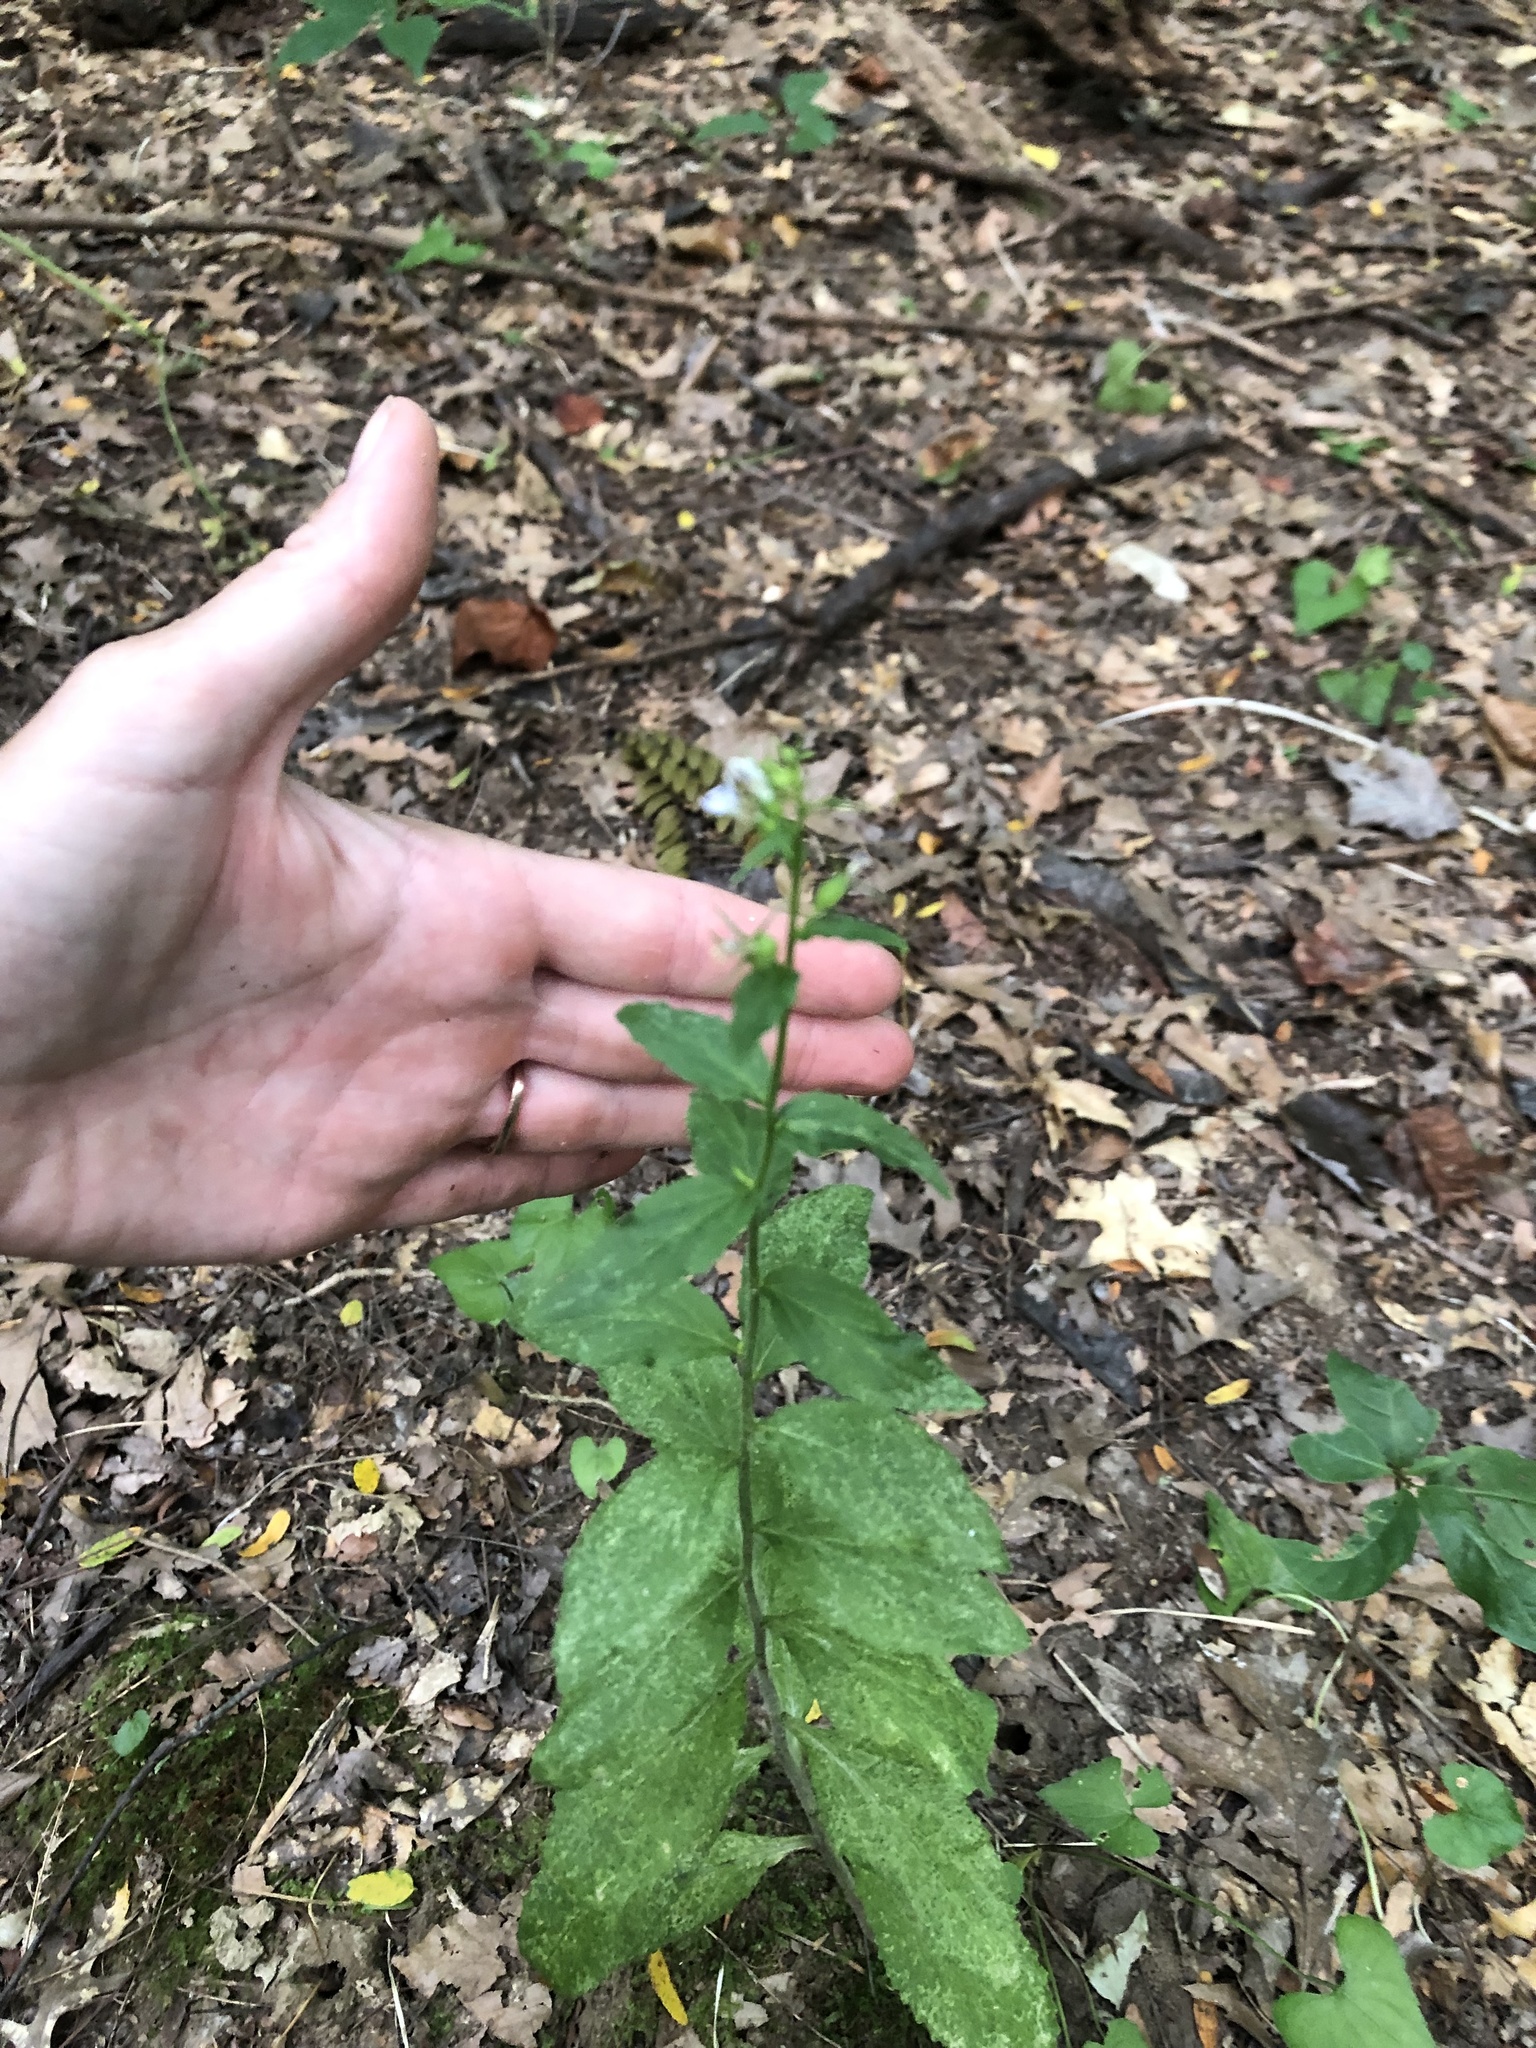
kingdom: Plantae
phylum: Tracheophyta
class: Magnoliopsida
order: Asterales
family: Campanulaceae
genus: Lobelia
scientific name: Lobelia inflata
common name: Indian tobacco
